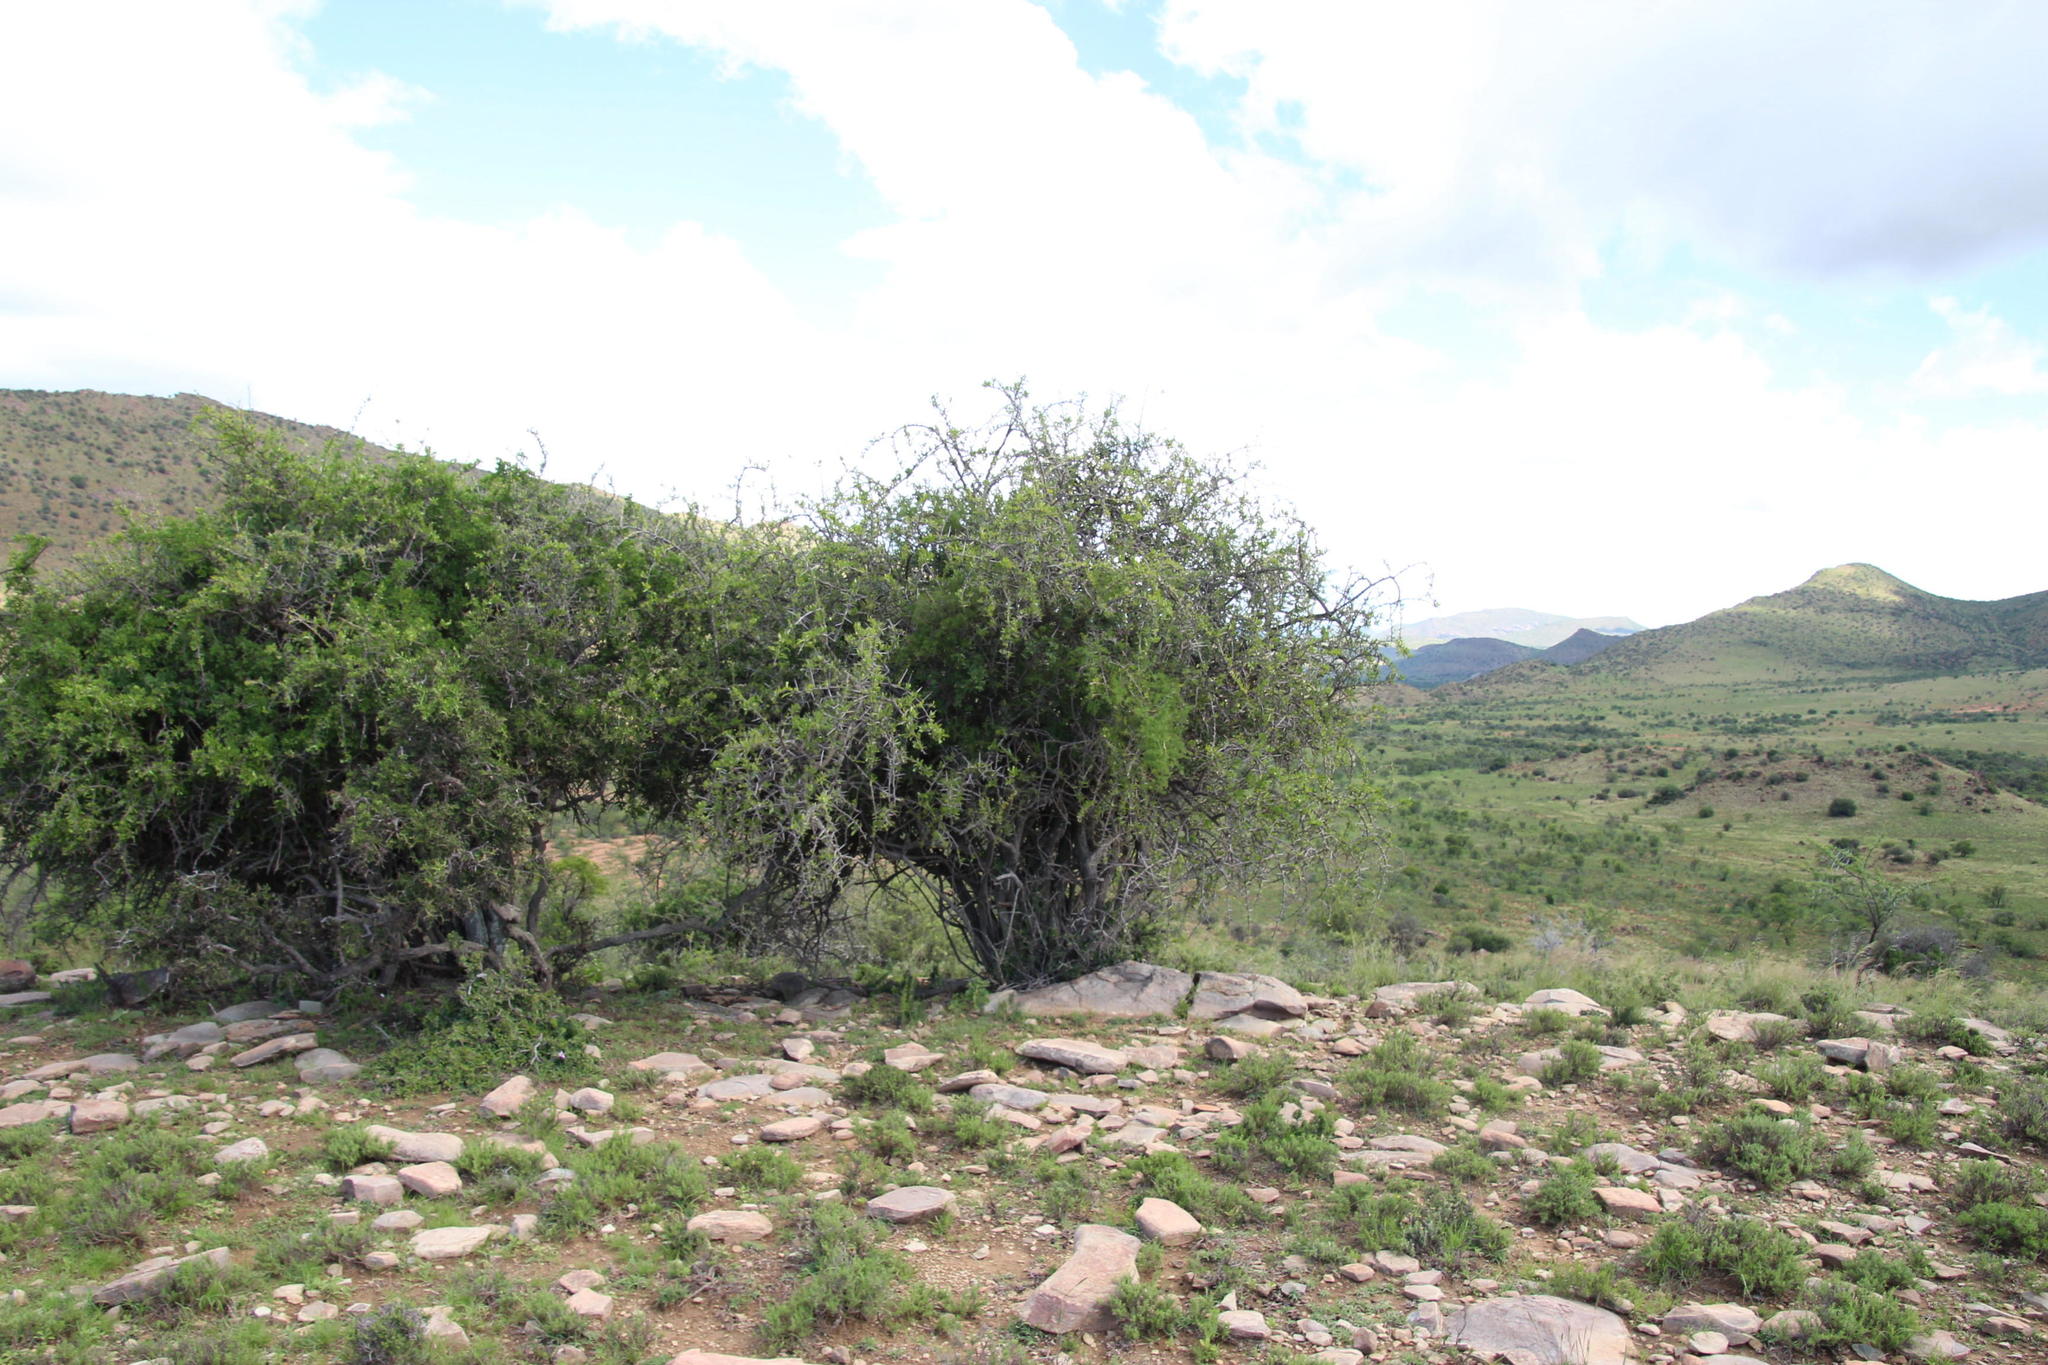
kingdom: Plantae
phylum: Tracheophyta
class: Magnoliopsida
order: Malvales
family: Malvaceae
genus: Grewia
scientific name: Grewia robusta
